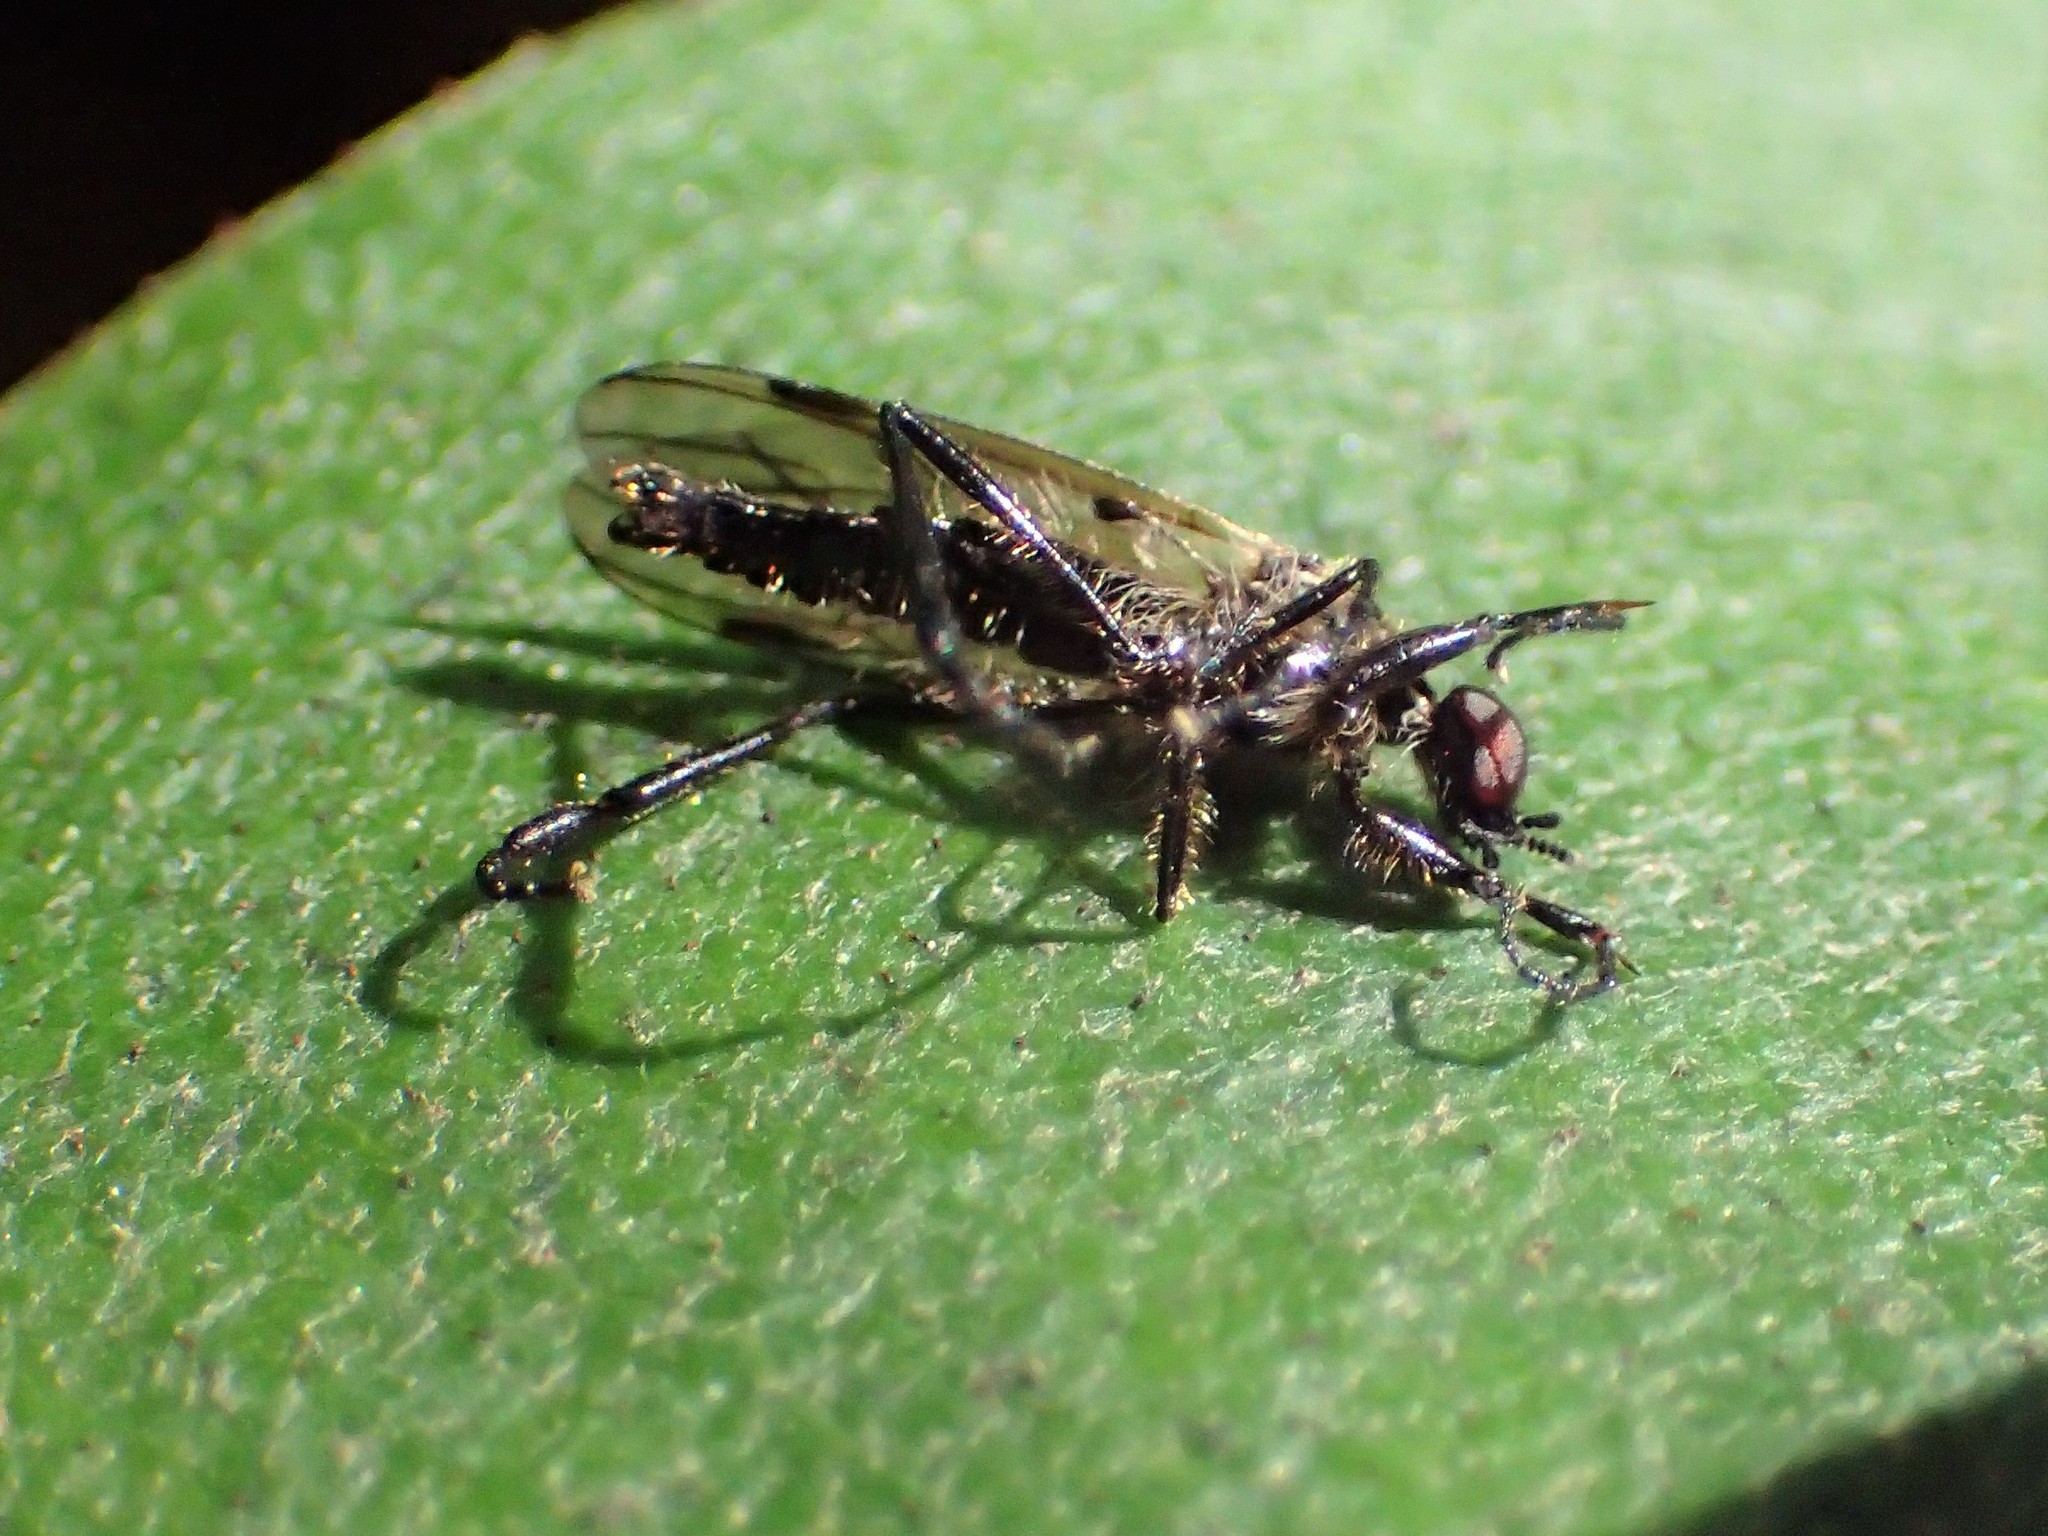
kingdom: Animalia
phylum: Arthropoda
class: Insecta
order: Diptera
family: Bibionidae
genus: Bibio
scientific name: Bibio
